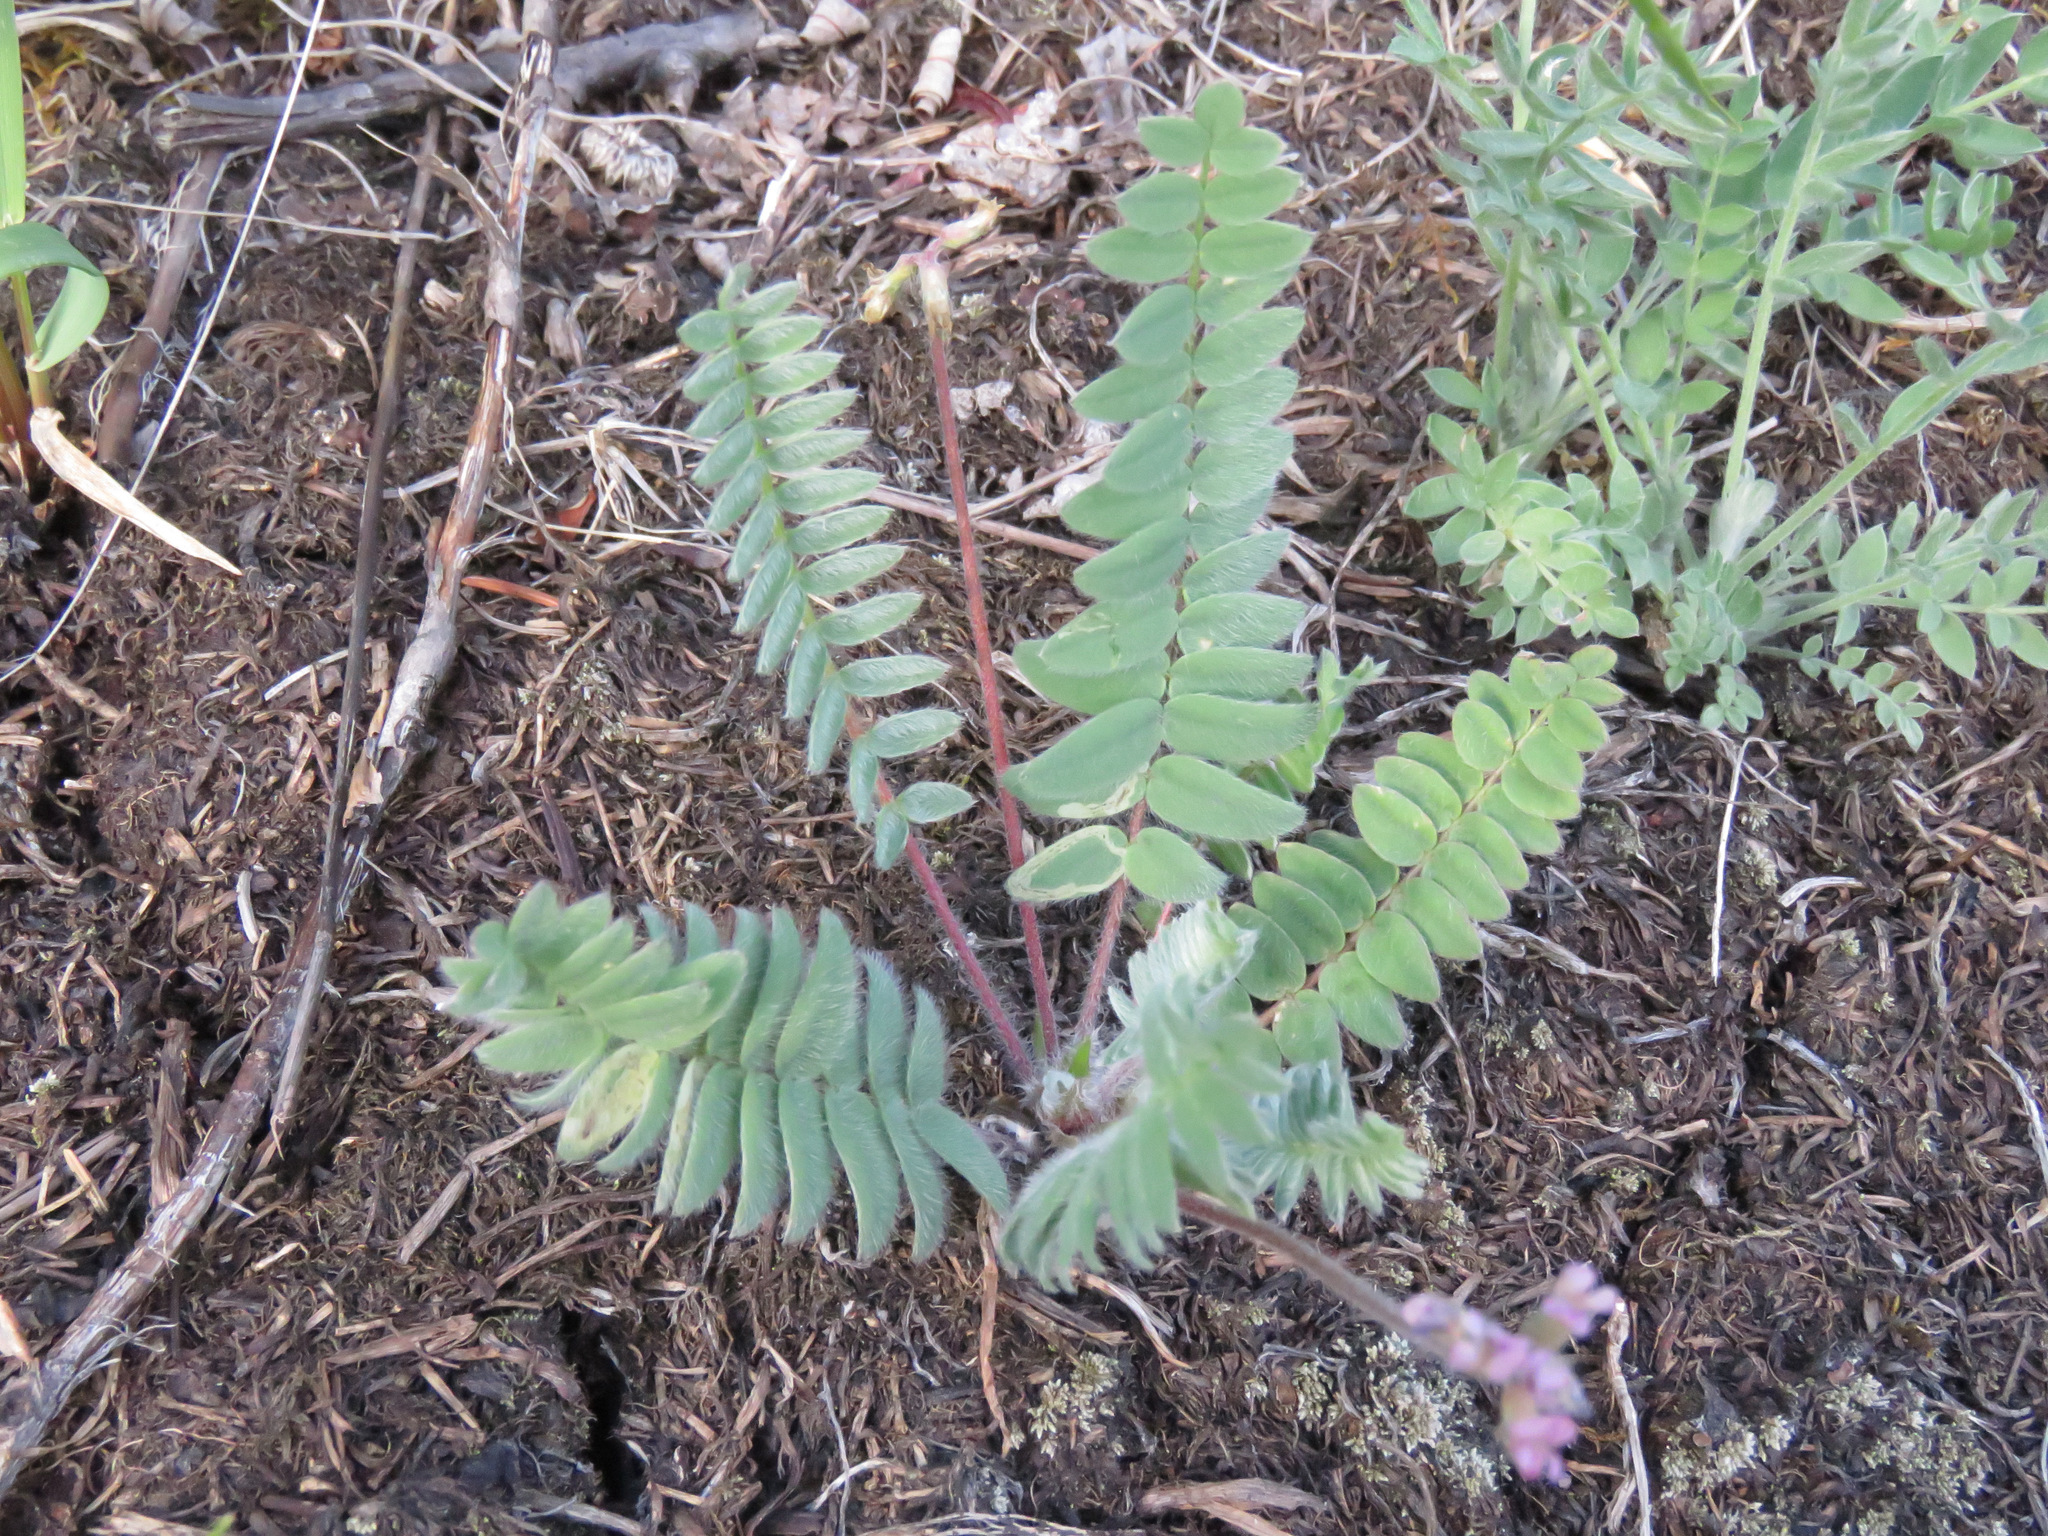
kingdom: Plantae
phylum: Tracheophyta
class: Magnoliopsida
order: Fabales
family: Fabaceae
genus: Oxytropis
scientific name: Oxytropis deflexa
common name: Stemmed oxytrope
